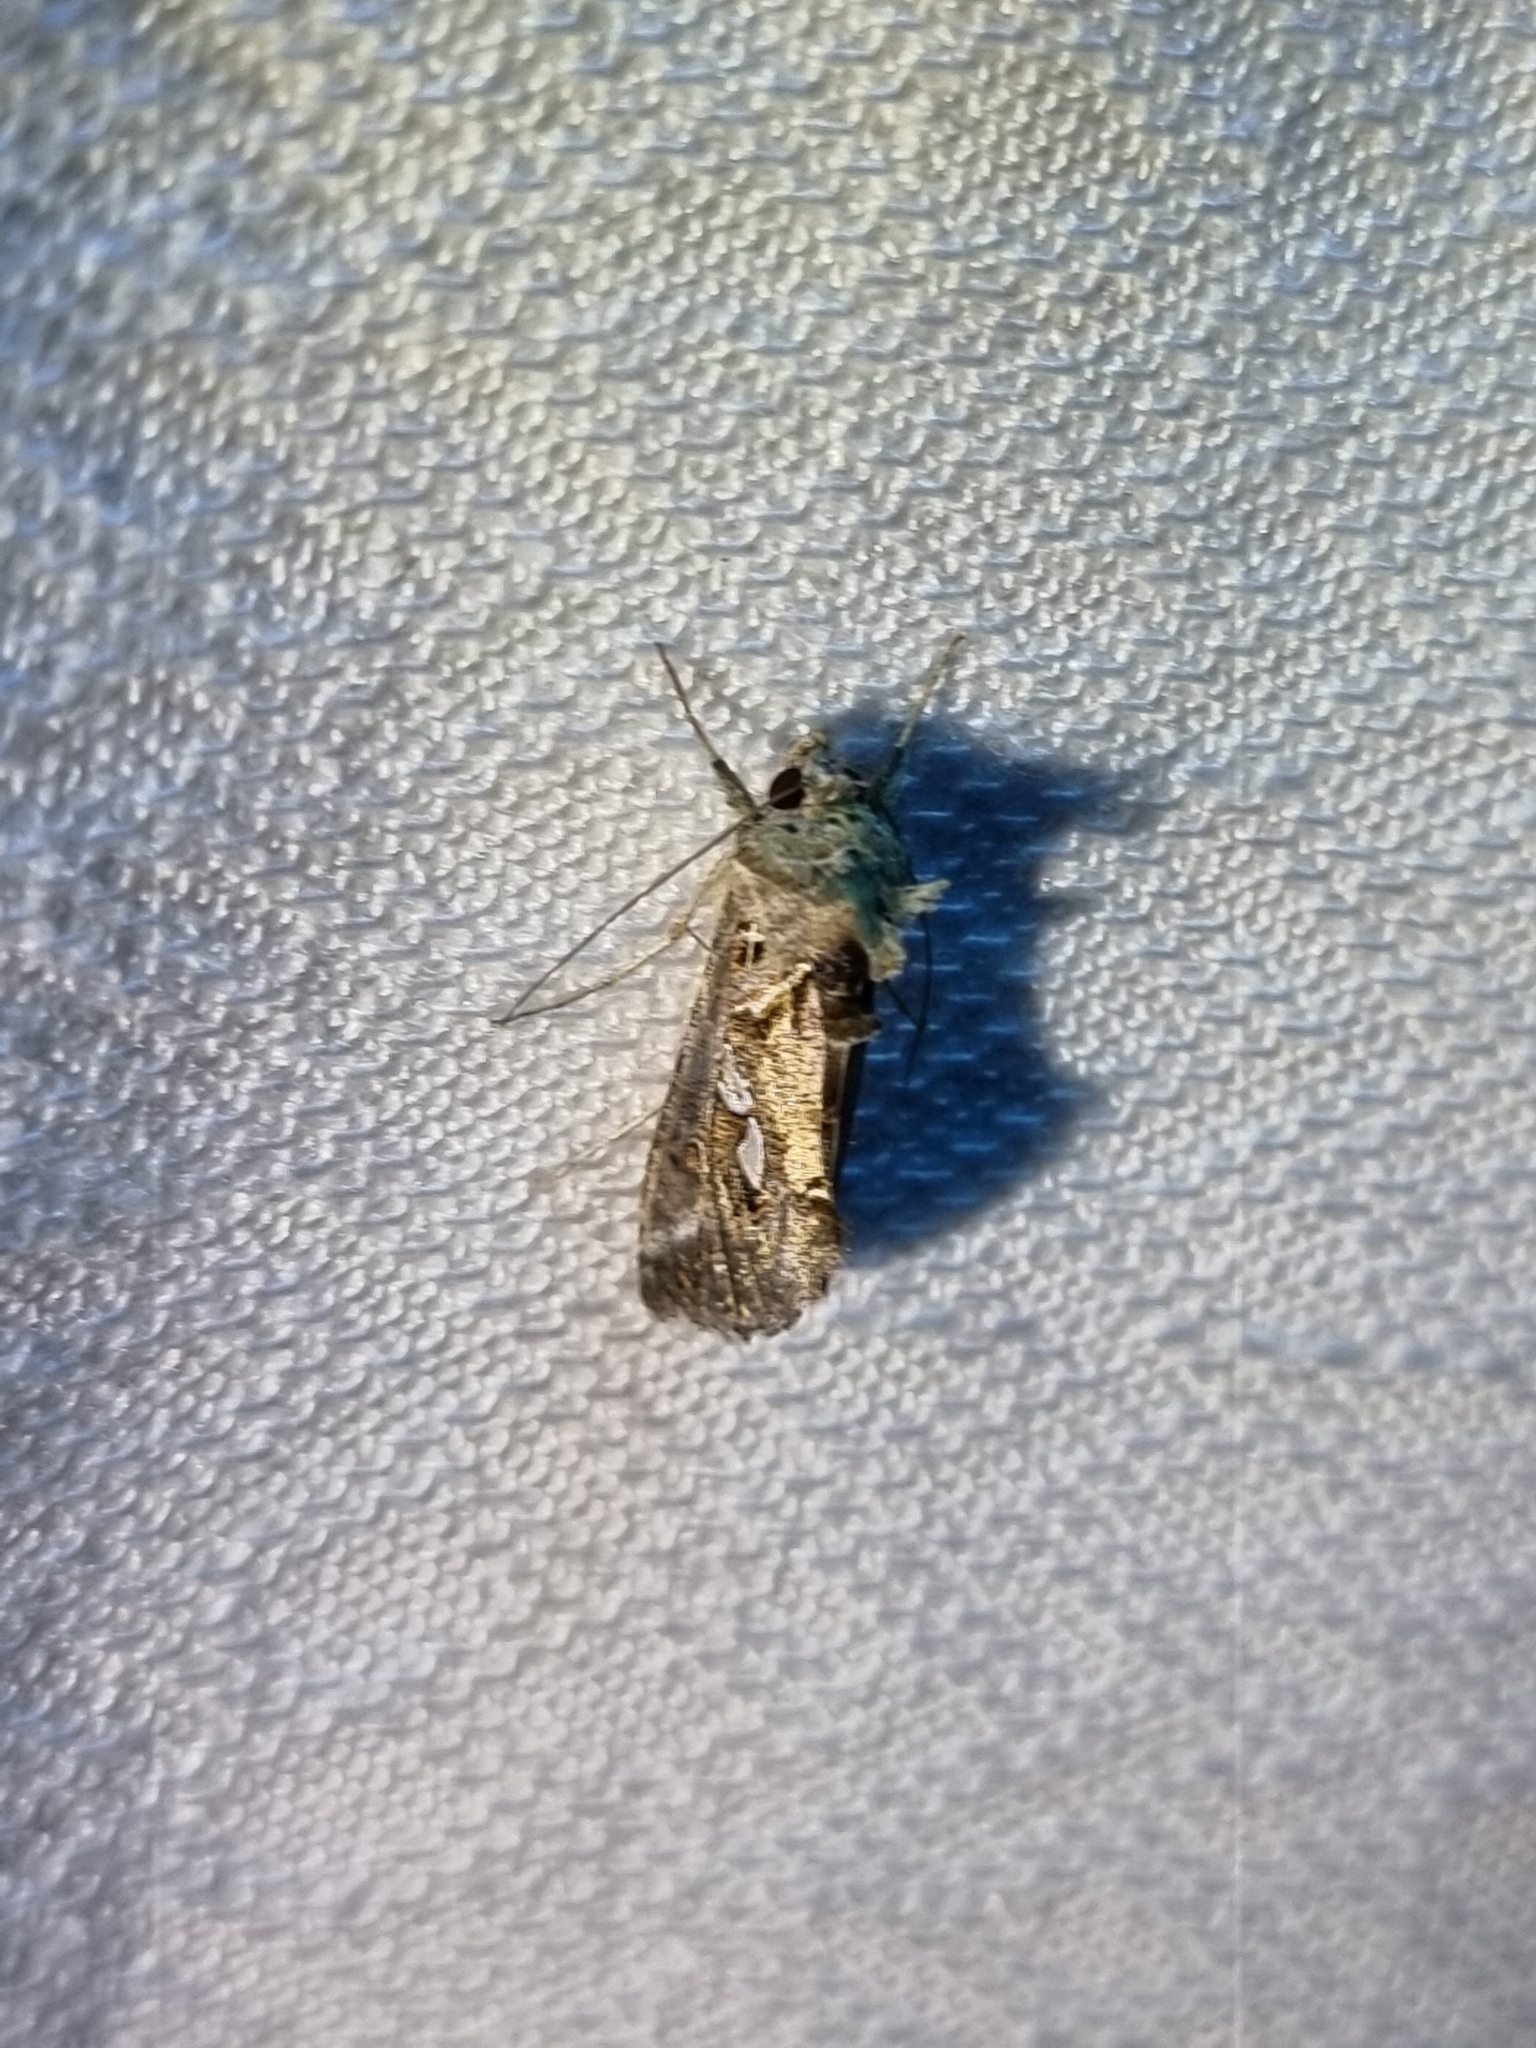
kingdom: Animalia
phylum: Arthropoda
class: Insecta
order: Lepidoptera
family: Noctuidae
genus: Chrysodeixis
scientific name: Chrysodeixis argentifera
